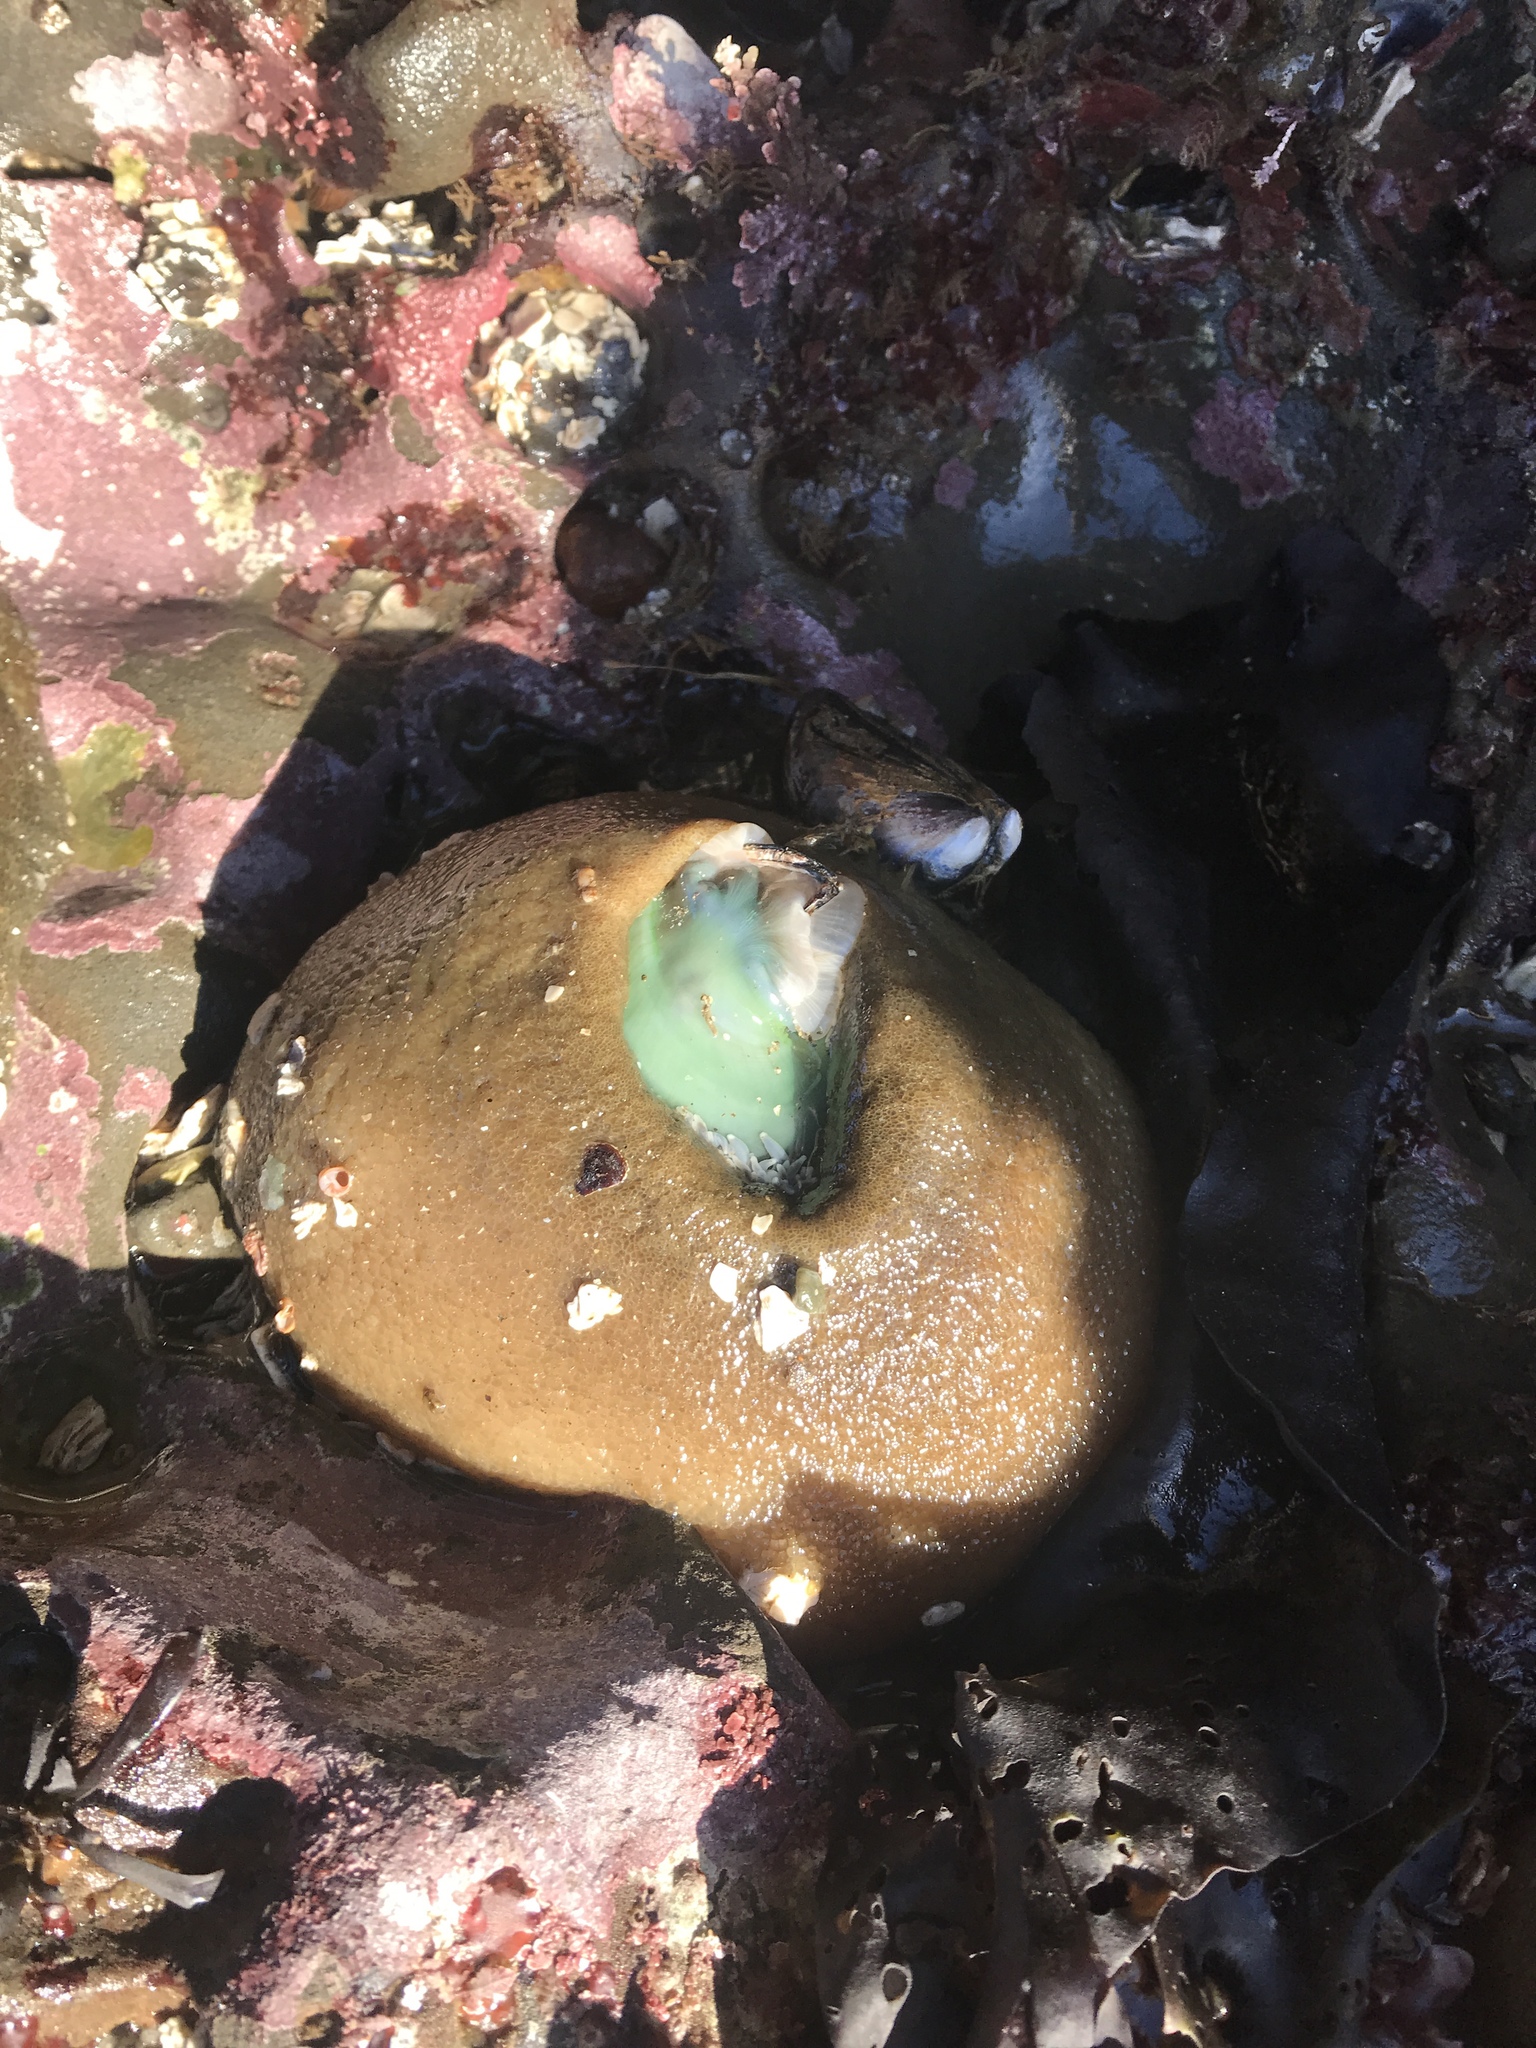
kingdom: Animalia
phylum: Cnidaria
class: Anthozoa
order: Actiniaria
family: Actiniidae
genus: Anthopleura
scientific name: Anthopleura xanthogrammica
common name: Giant green anemone
